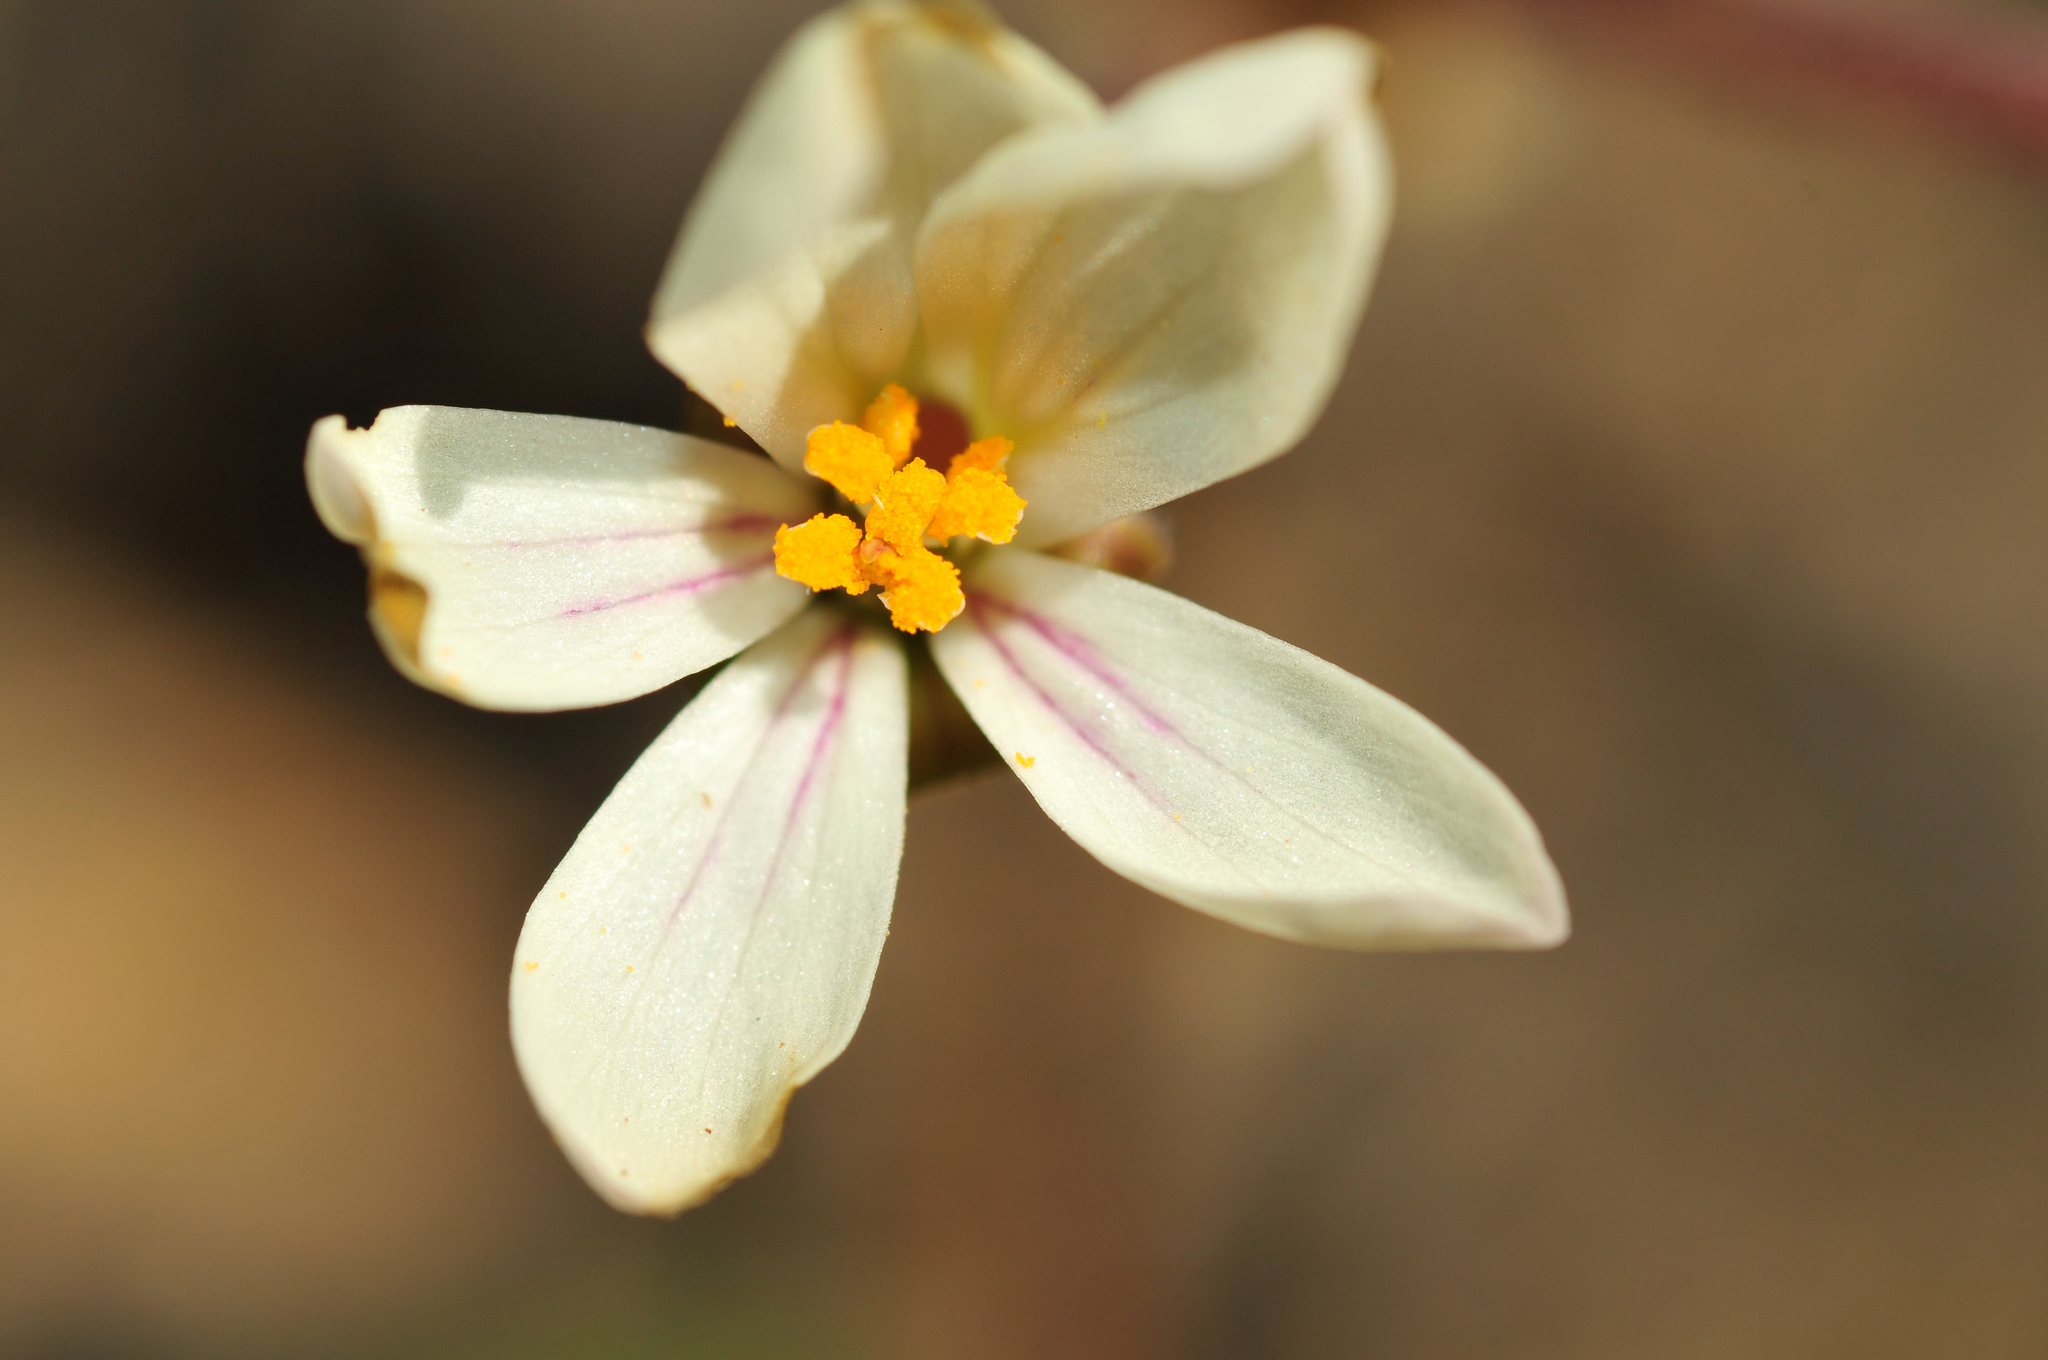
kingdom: Plantae
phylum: Tracheophyta
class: Magnoliopsida
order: Geraniales
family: Geraniaceae
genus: Pelargonium
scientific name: Pelargonium triste
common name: Night-scent pelargonium
